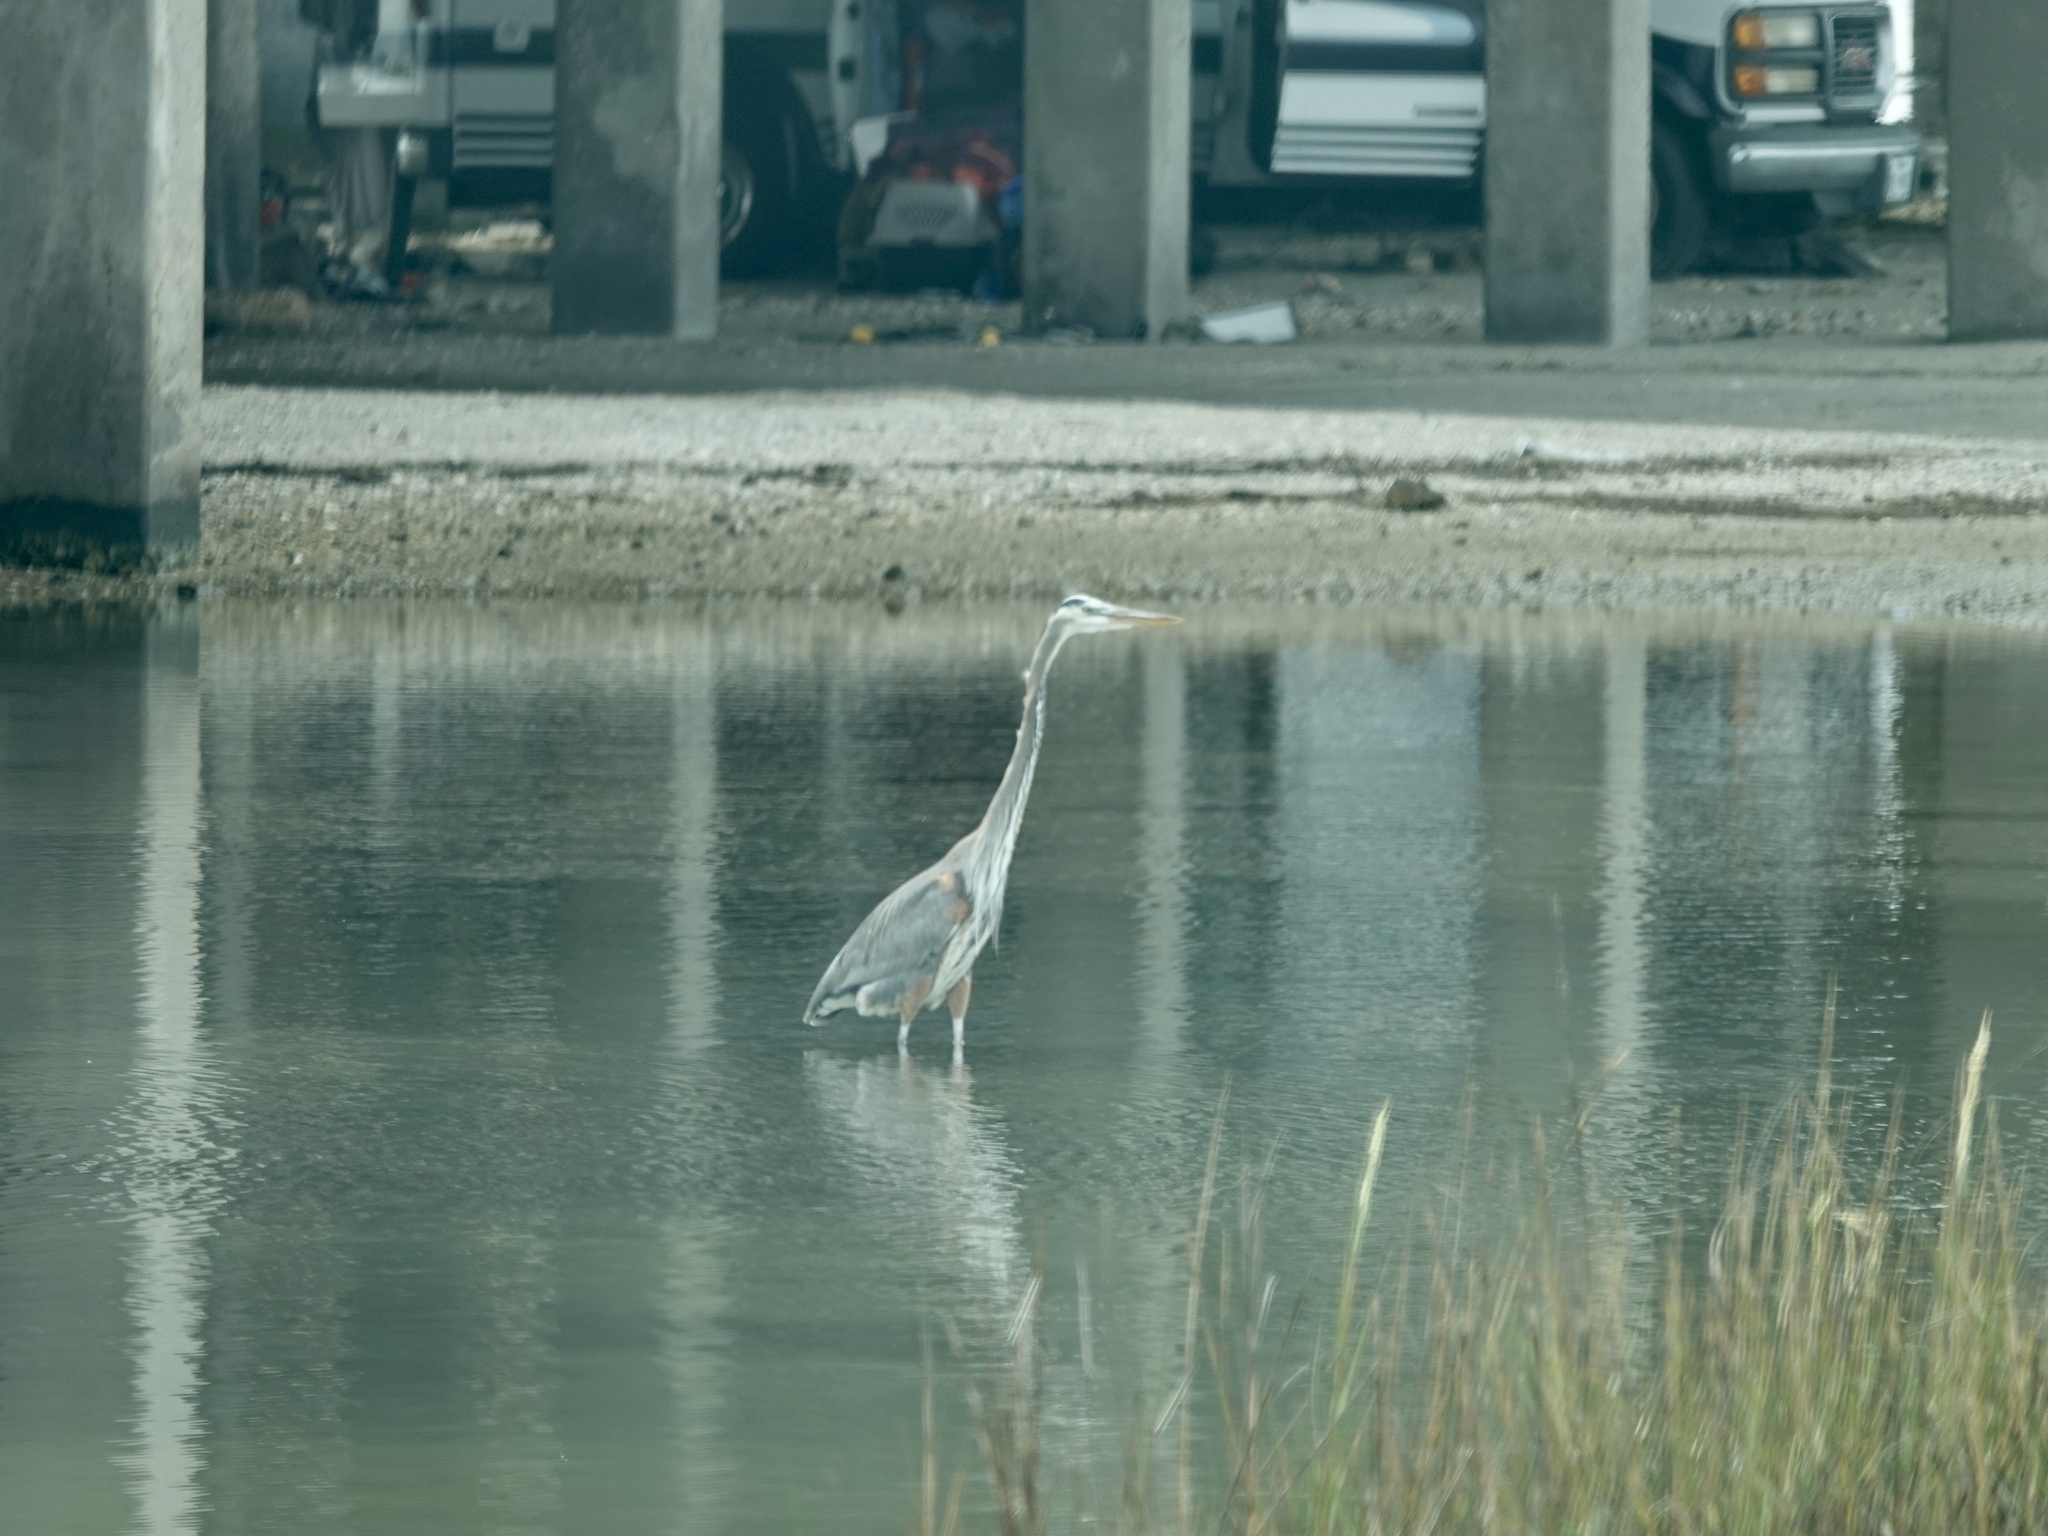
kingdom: Animalia
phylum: Chordata
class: Aves
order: Pelecaniformes
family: Ardeidae
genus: Ardea
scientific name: Ardea herodias
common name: Great blue heron
